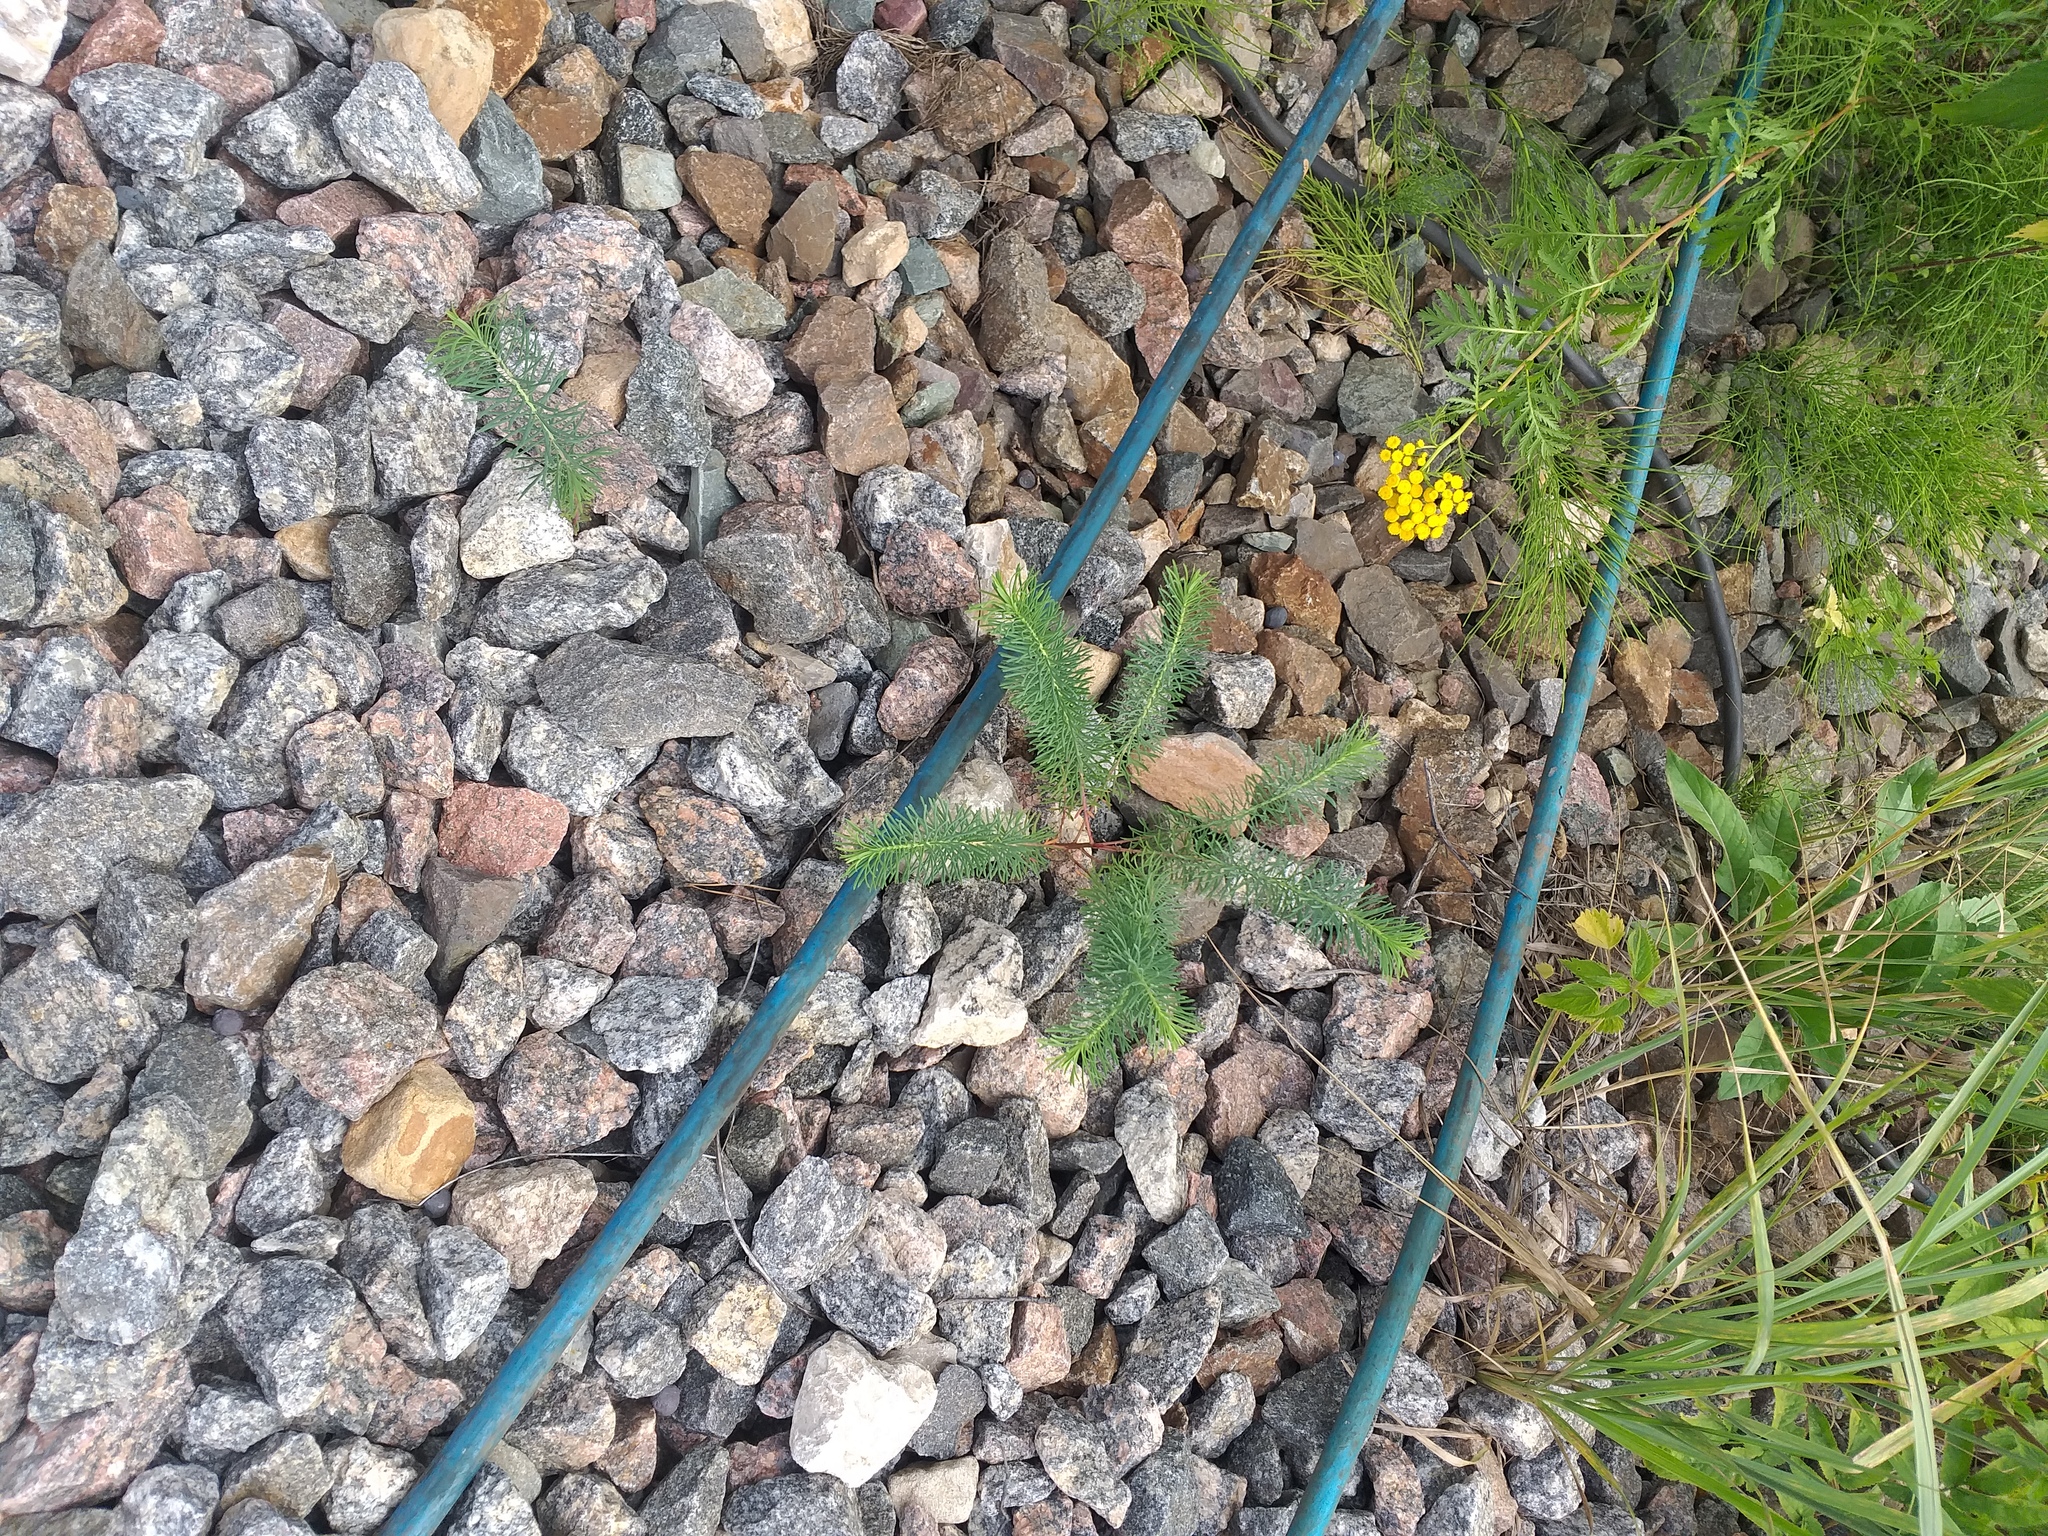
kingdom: Plantae
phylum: Tracheophyta
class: Magnoliopsida
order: Malpighiales
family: Euphorbiaceae
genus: Euphorbia
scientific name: Euphorbia cyparissias
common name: Cypress spurge
